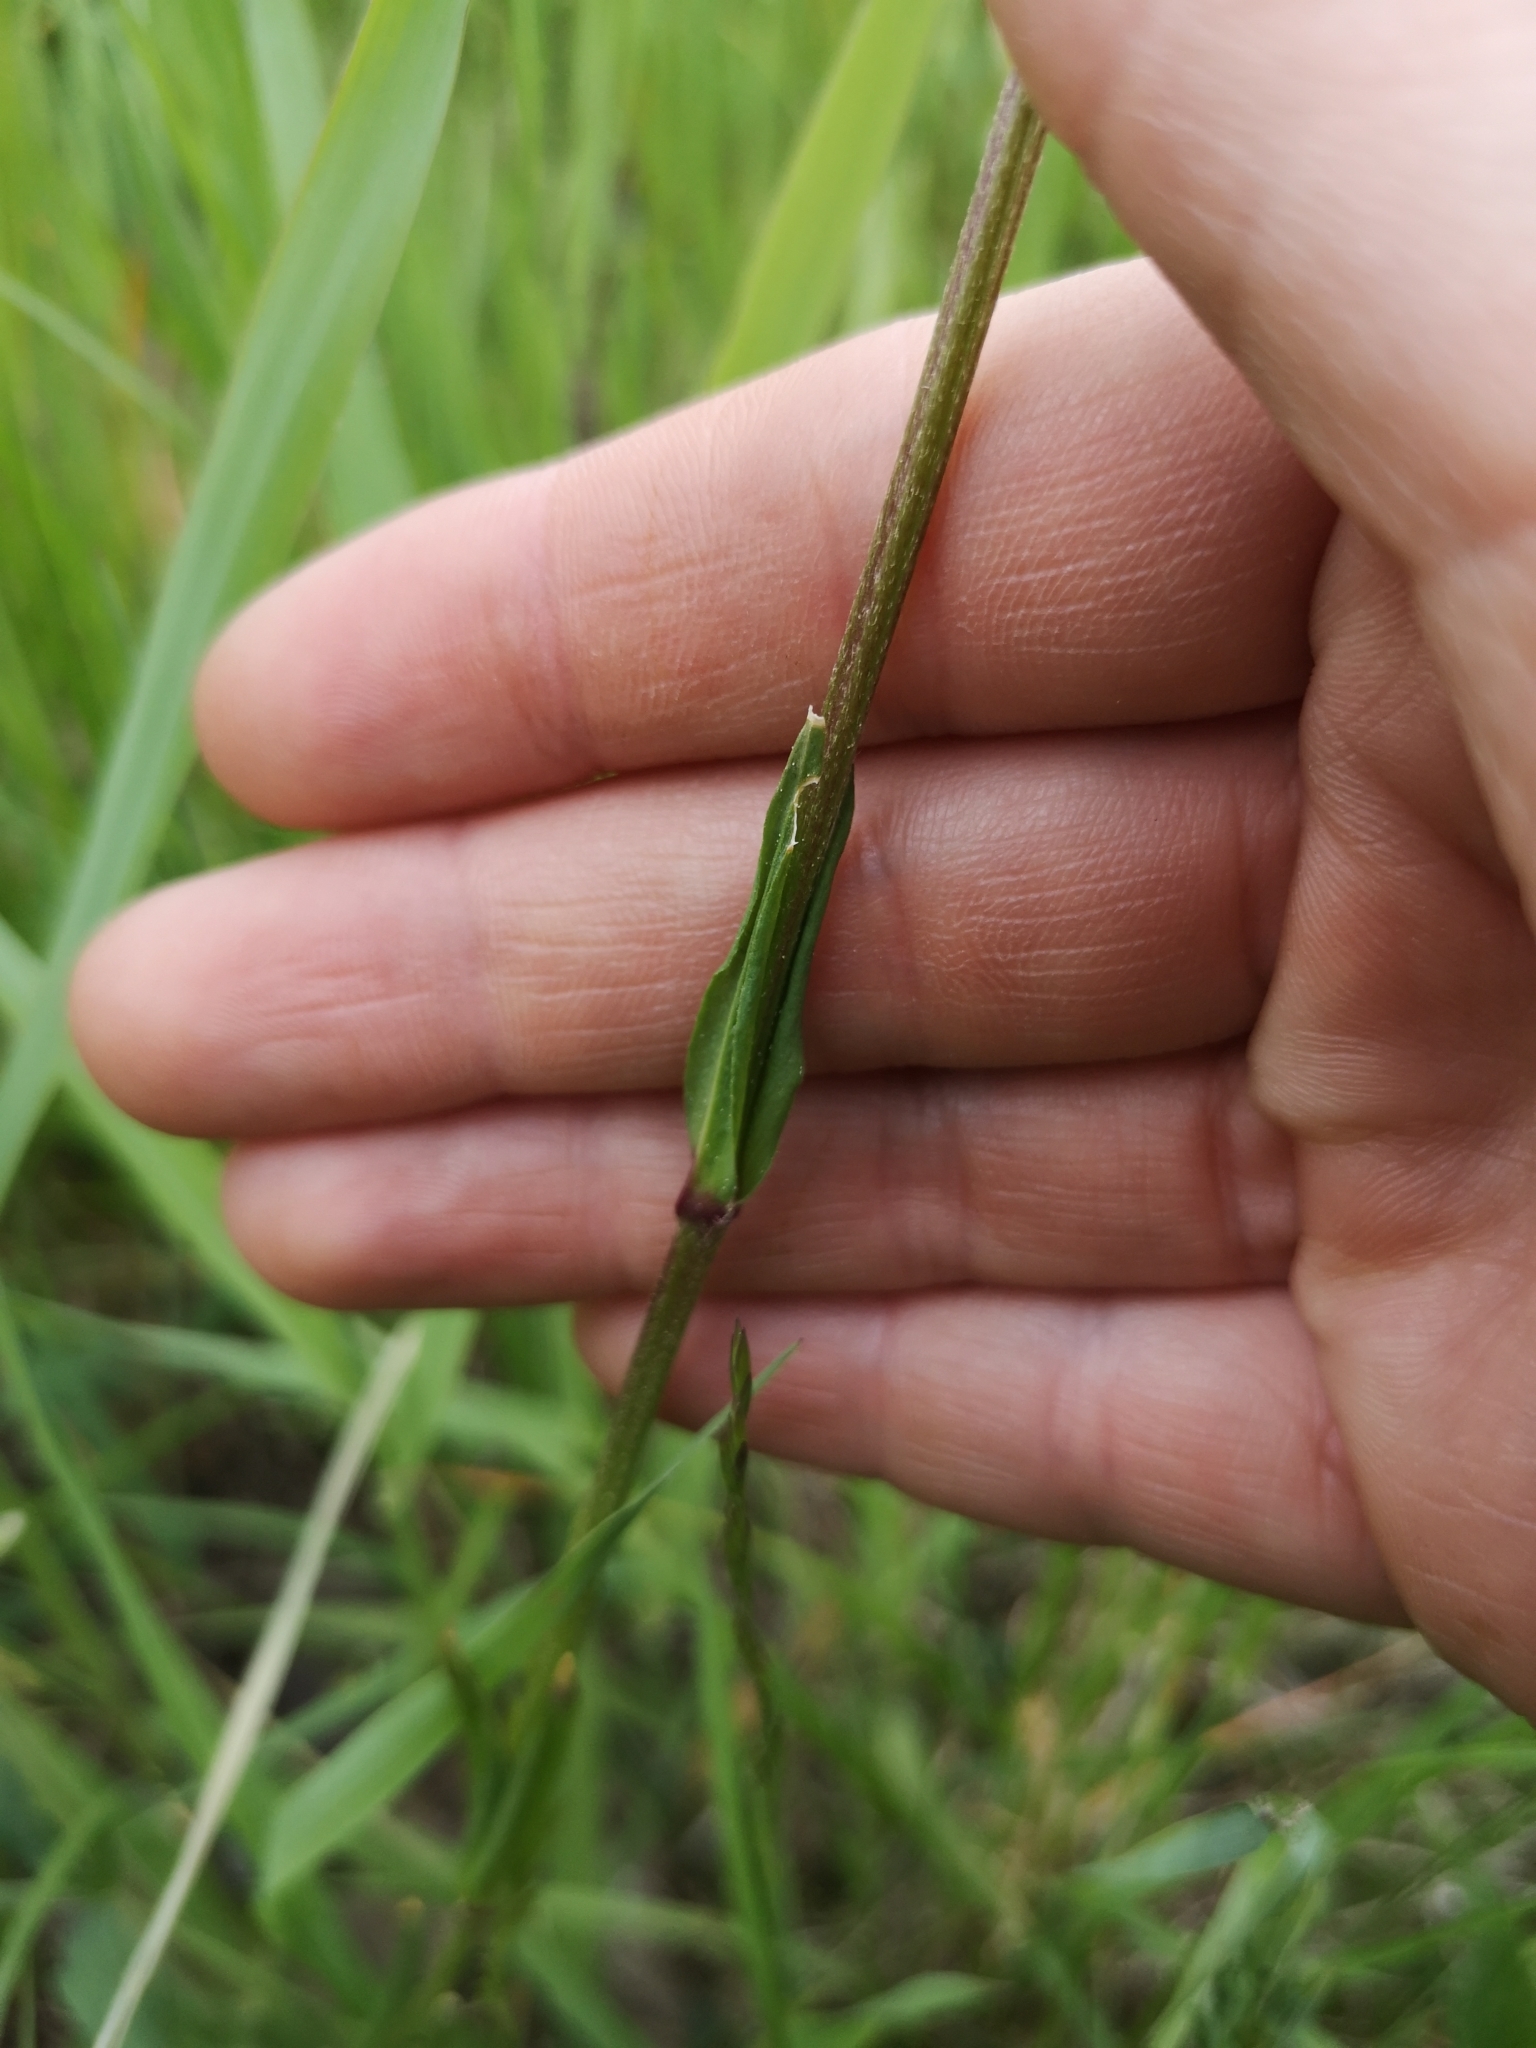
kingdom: Plantae
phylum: Tracheophyta
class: Magnoliopsida
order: Caryophyllales
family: Caryophyllaceae
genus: Silene
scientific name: Silene flos-cuculi
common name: Ragged-robin
